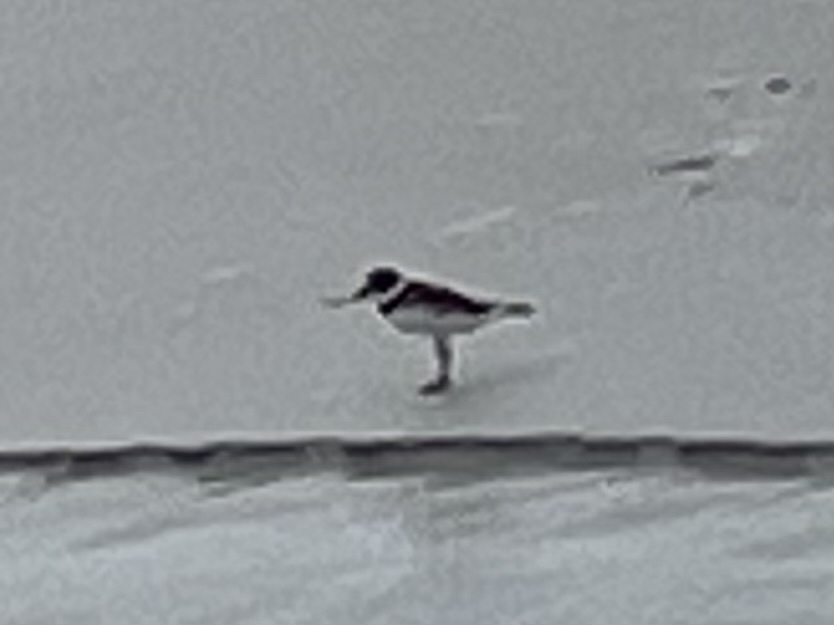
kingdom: Animalia
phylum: Chordata
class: Aves
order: Charadriiformes
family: Charadriidae
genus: Charadrius
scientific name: Charadrius semipalmatus
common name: Semipalmated plover
